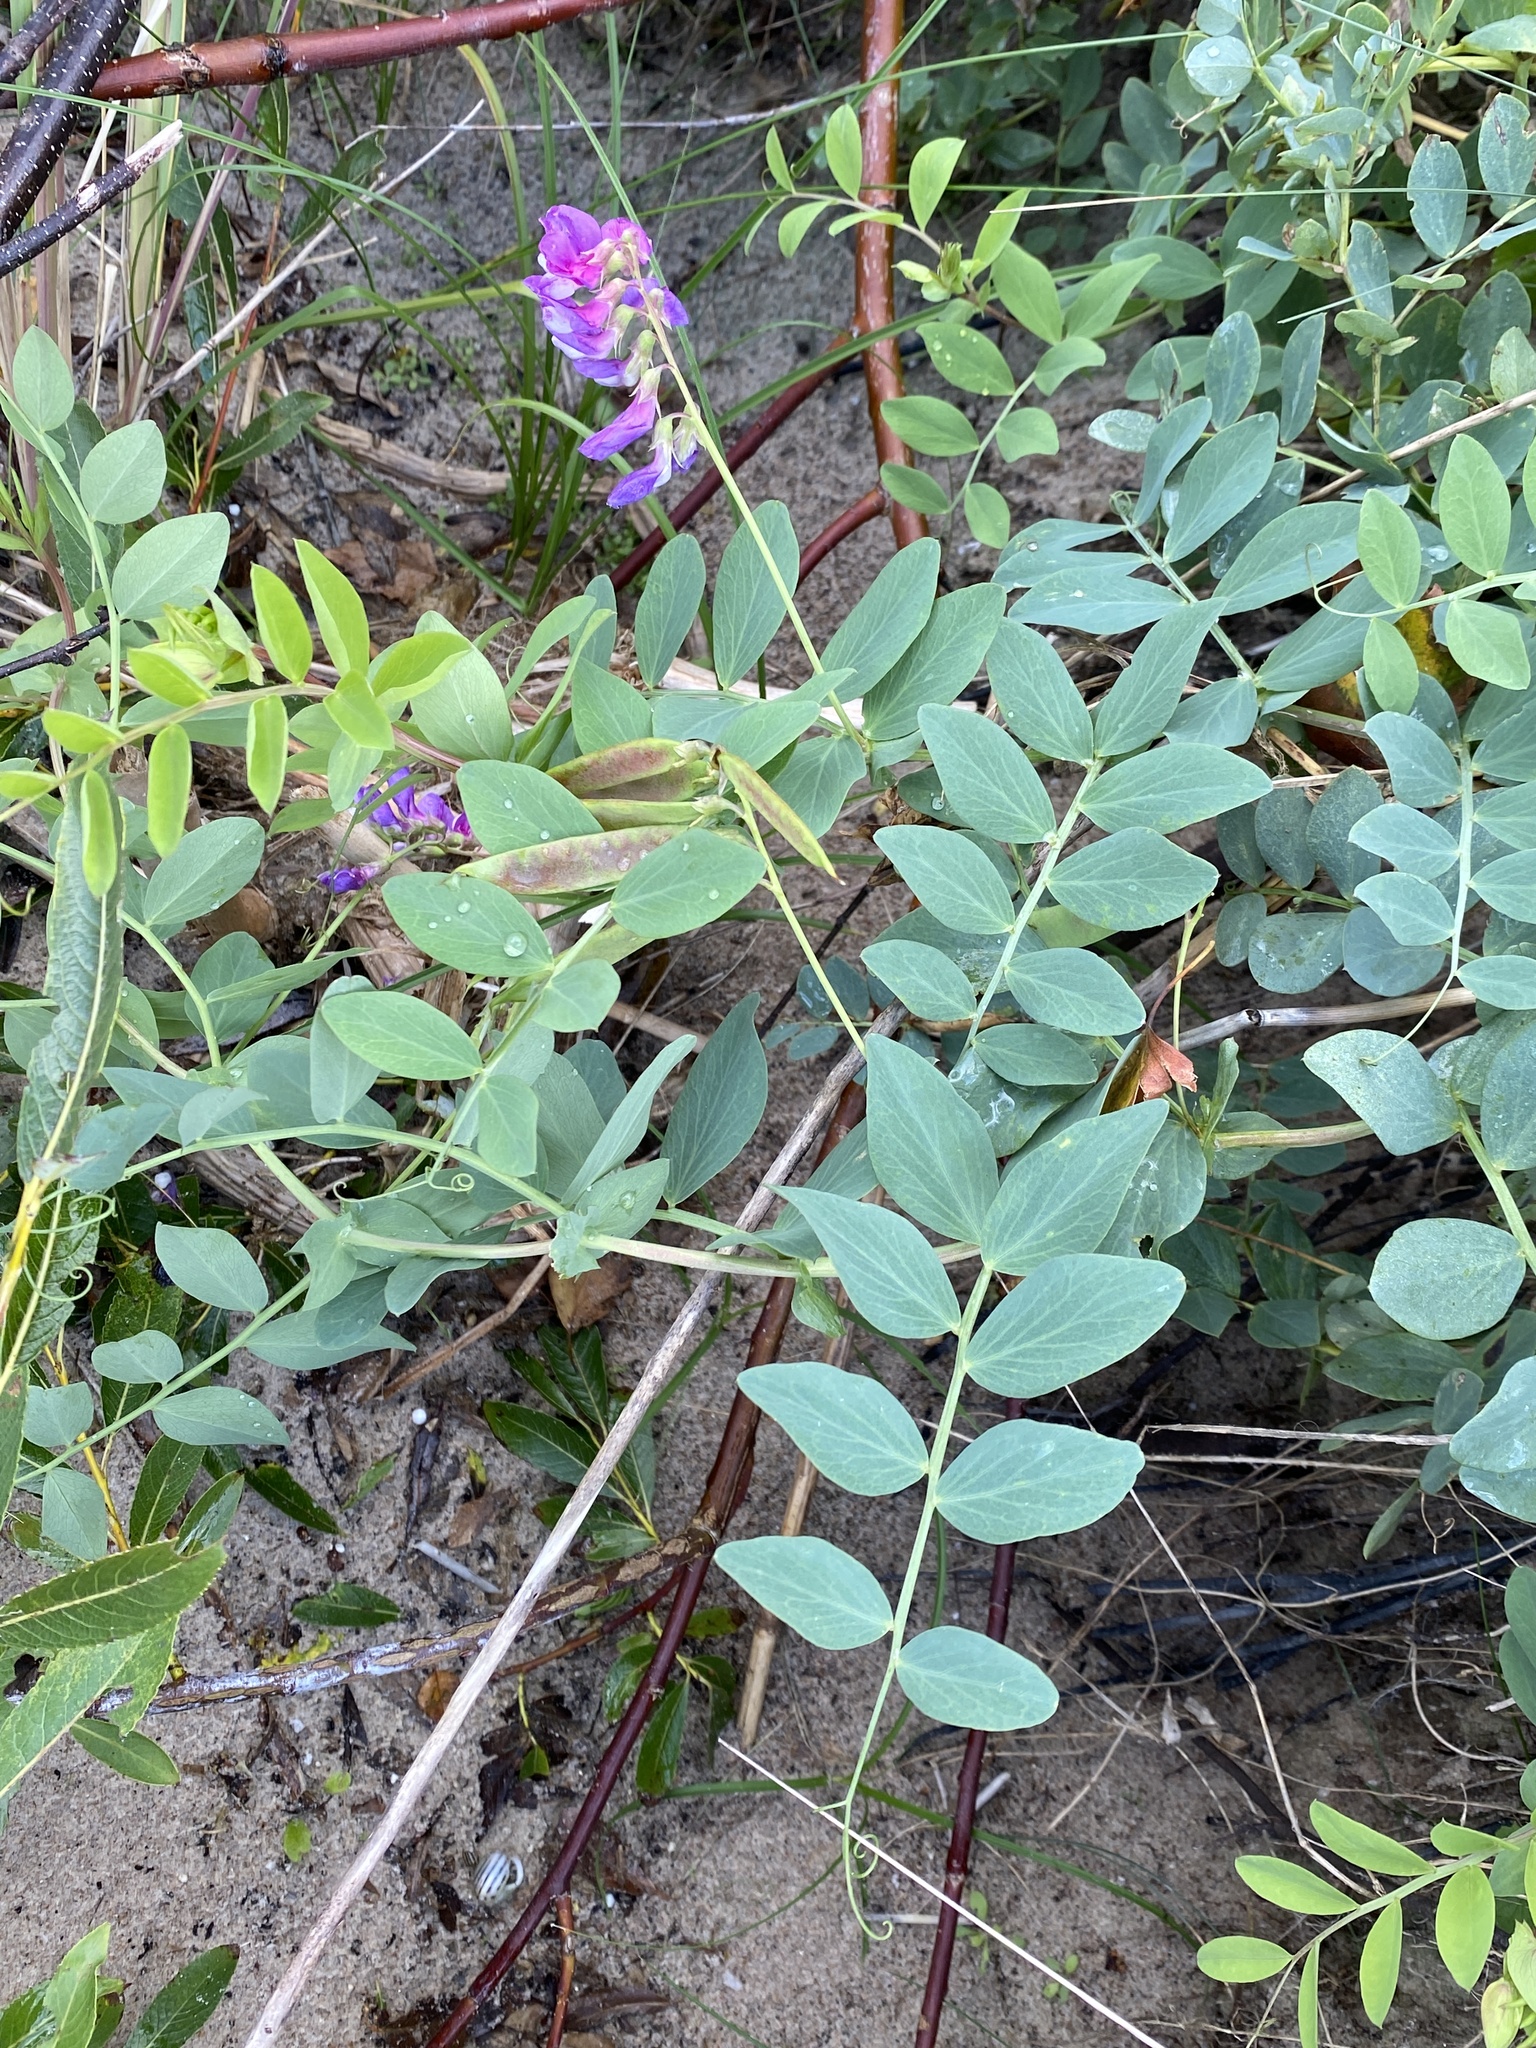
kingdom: Plantae
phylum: Tracheophyta
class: Magnoliopsida
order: Fabales
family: Fabaceae
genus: Lathyrus
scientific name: Lathyrus japonicus
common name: Sea pea
